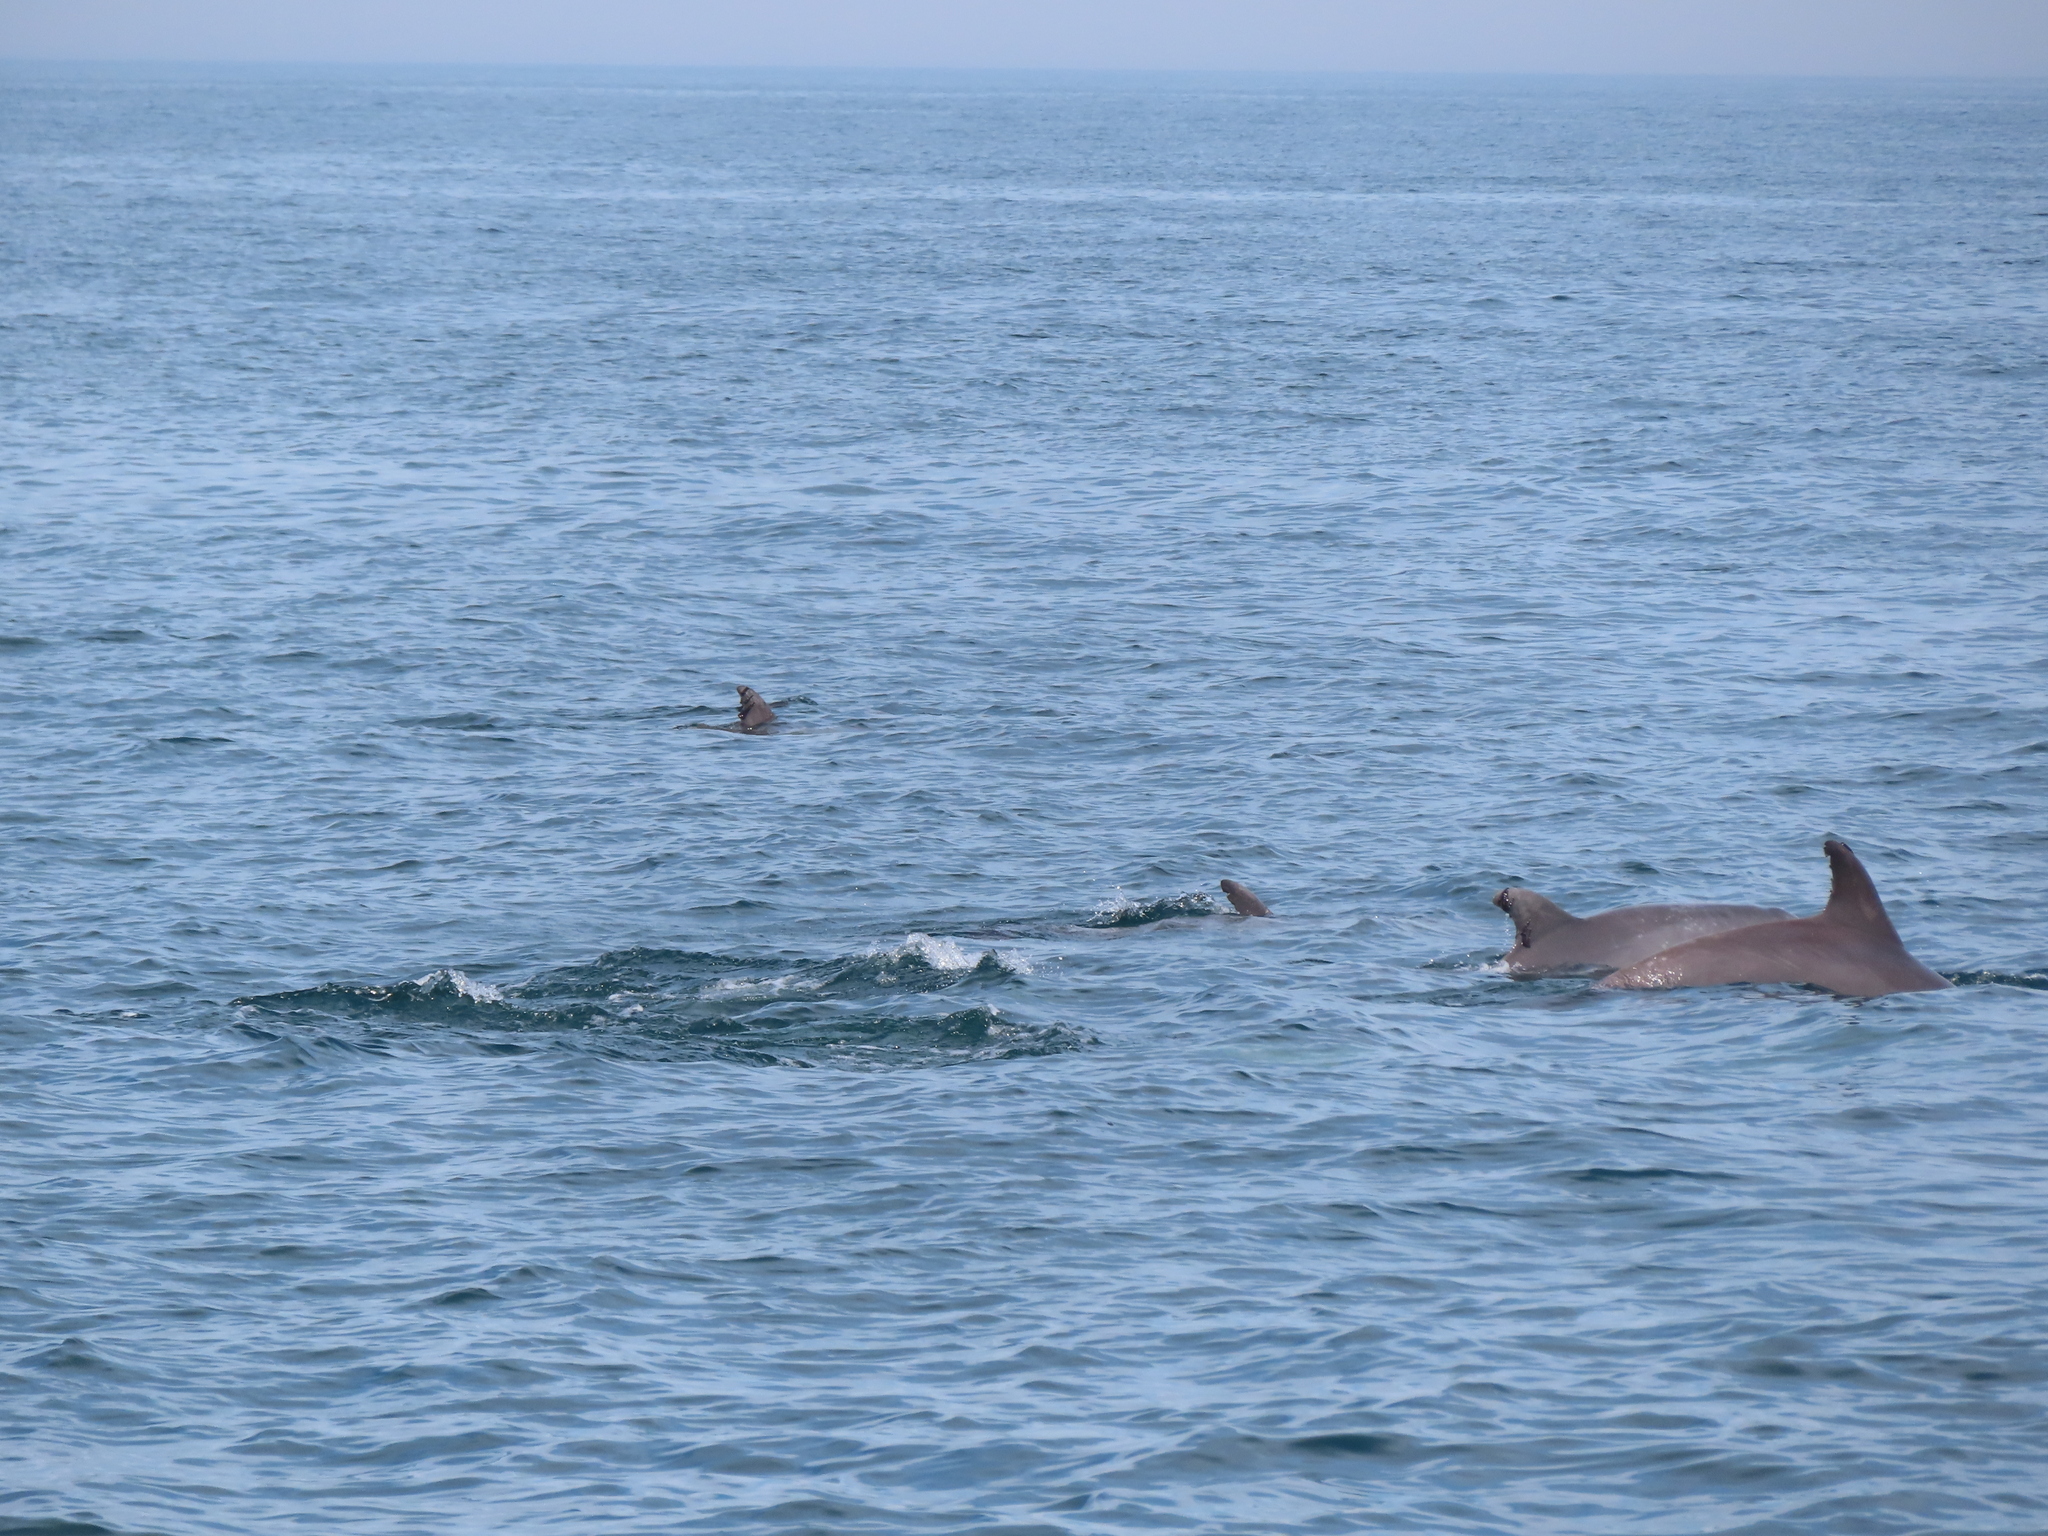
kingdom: Animalia
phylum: Chordata
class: Mammalia
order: Cetacea
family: Delphinidae
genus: Tursiops
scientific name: Tursiops truncatus
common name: Bottlenose dolphin
